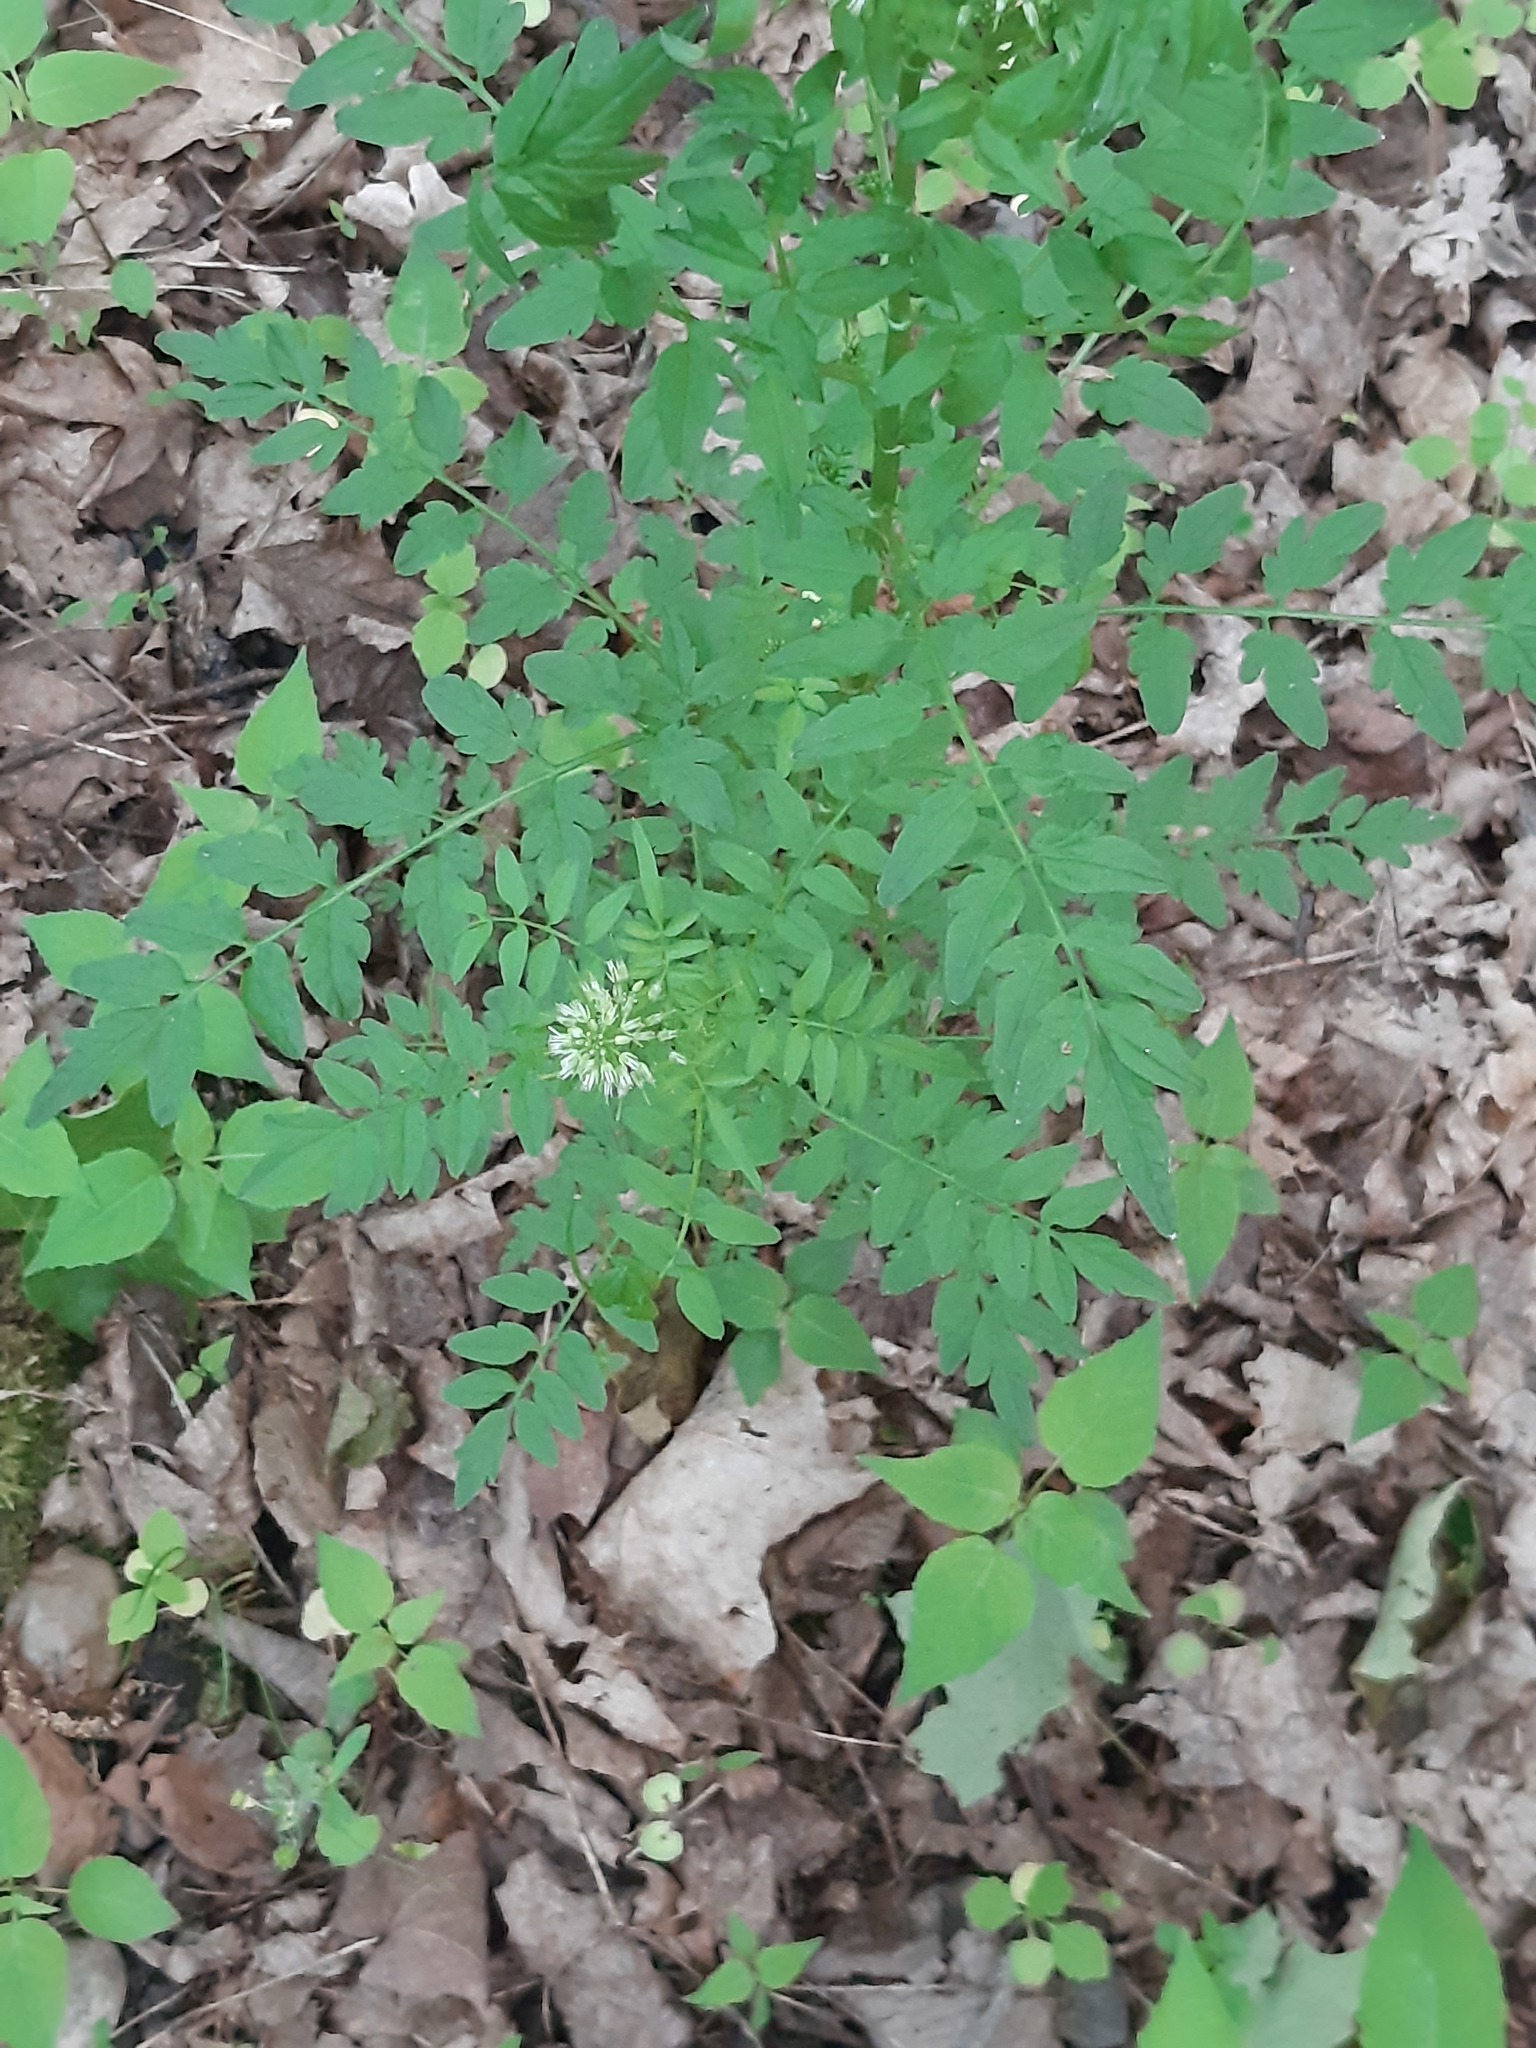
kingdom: Plantae
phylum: Tracheophyta
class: Magnoliopsida
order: Brassicales
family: Brassicaceae
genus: Cardamine
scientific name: Cardamine impatiens
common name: Narrow-leaved bitter-cress
